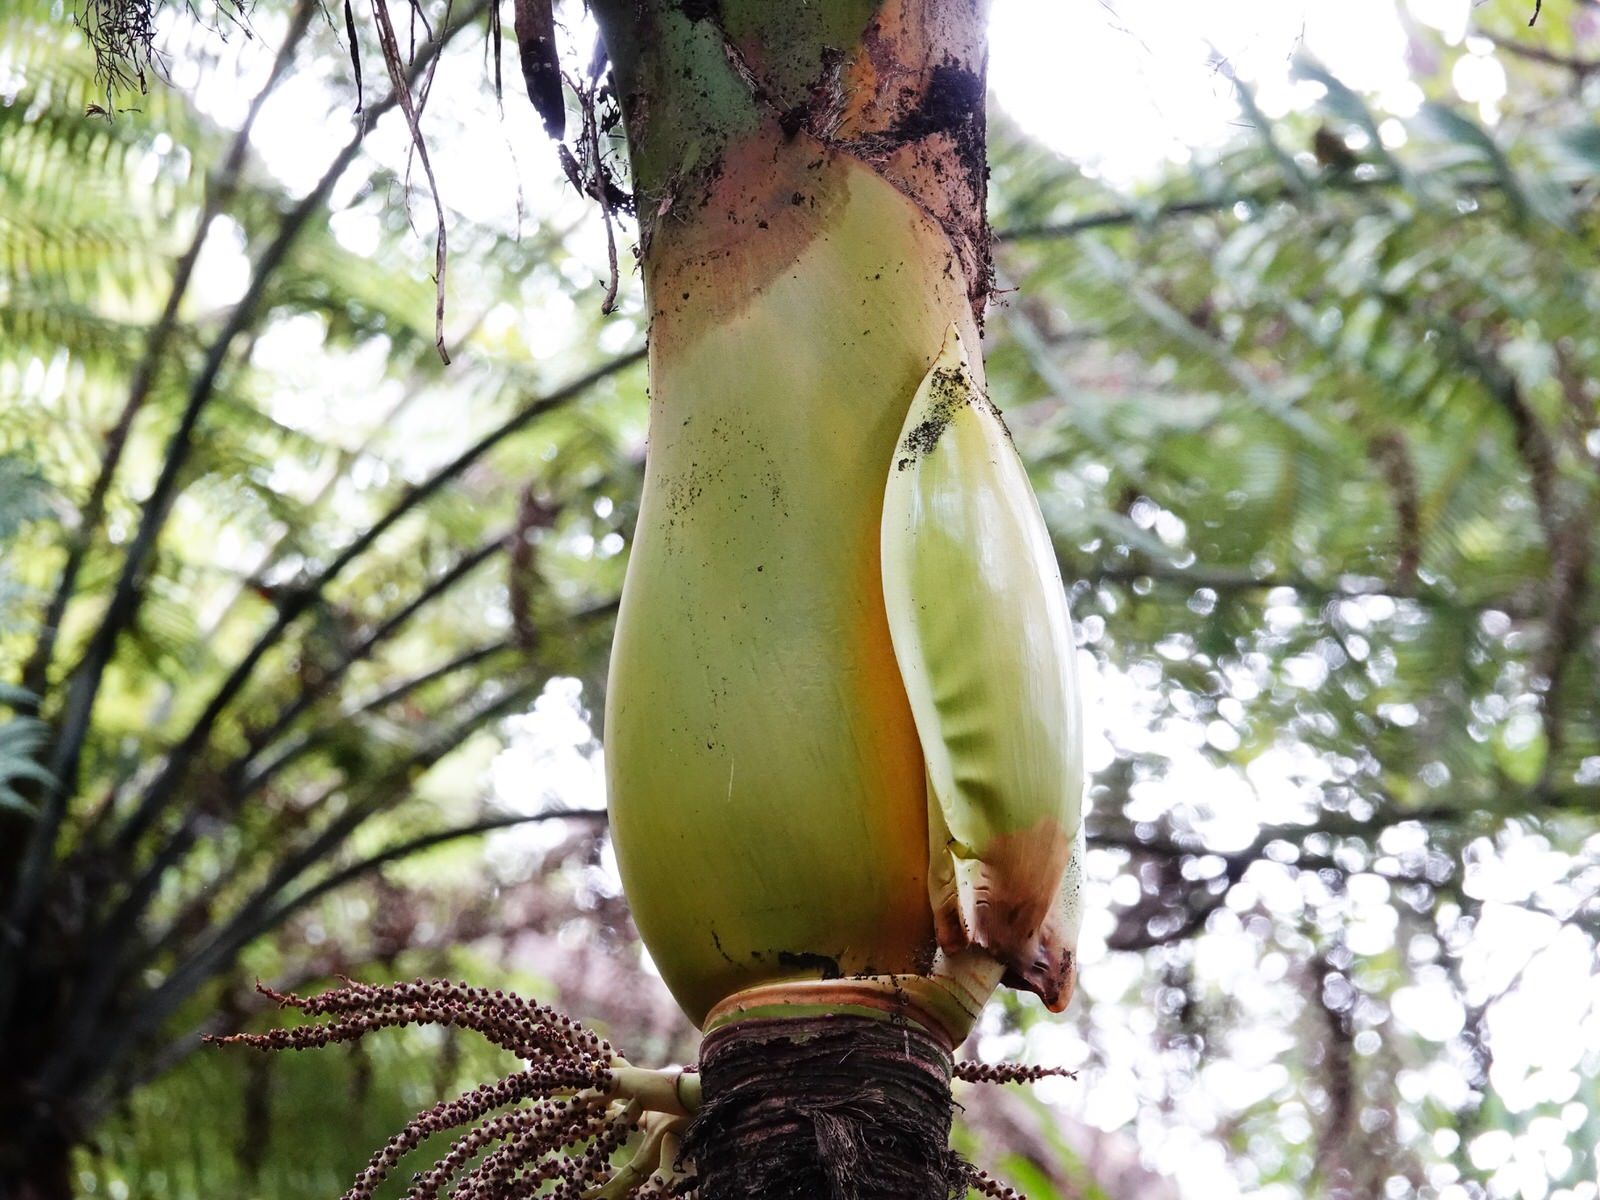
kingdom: Plantae
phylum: Tracheophyta
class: Liliopsida
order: Arecales
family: Arecaceae
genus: Rhopalostylis
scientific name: Rhopalostylis sapida
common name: Feather-duster palm
